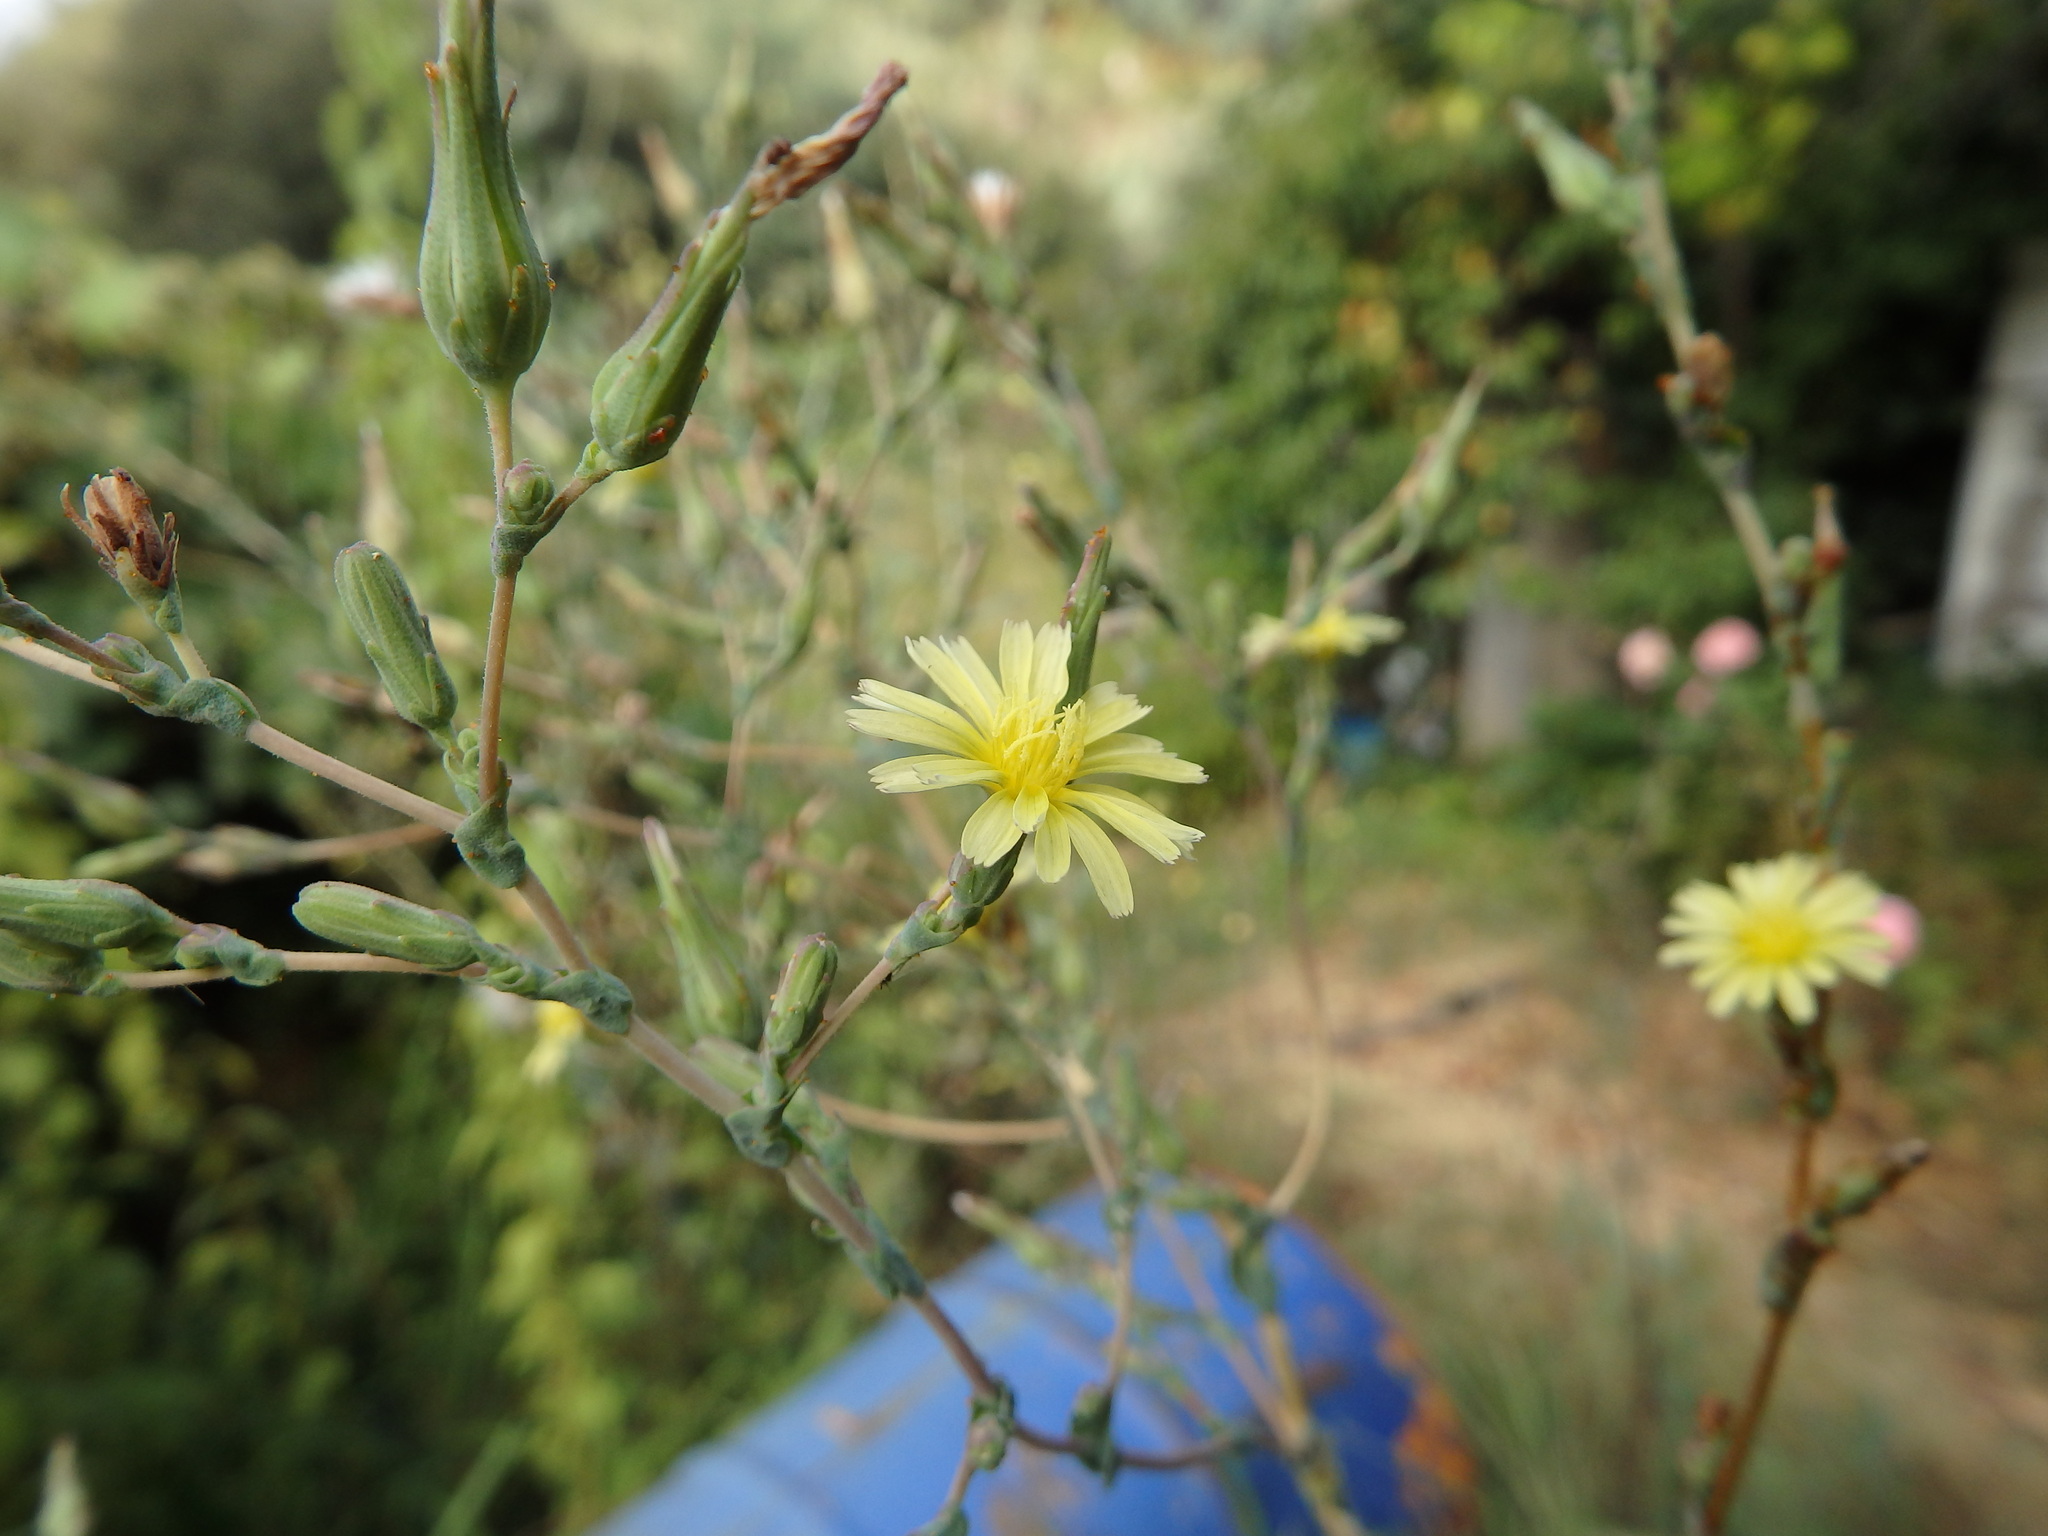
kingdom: Plantae
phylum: Tracheophyta
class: Magnoliopsida
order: Asterales
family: Asteraceae
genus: Lactuca
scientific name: Lactuca serriola
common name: Prickly lettuce
